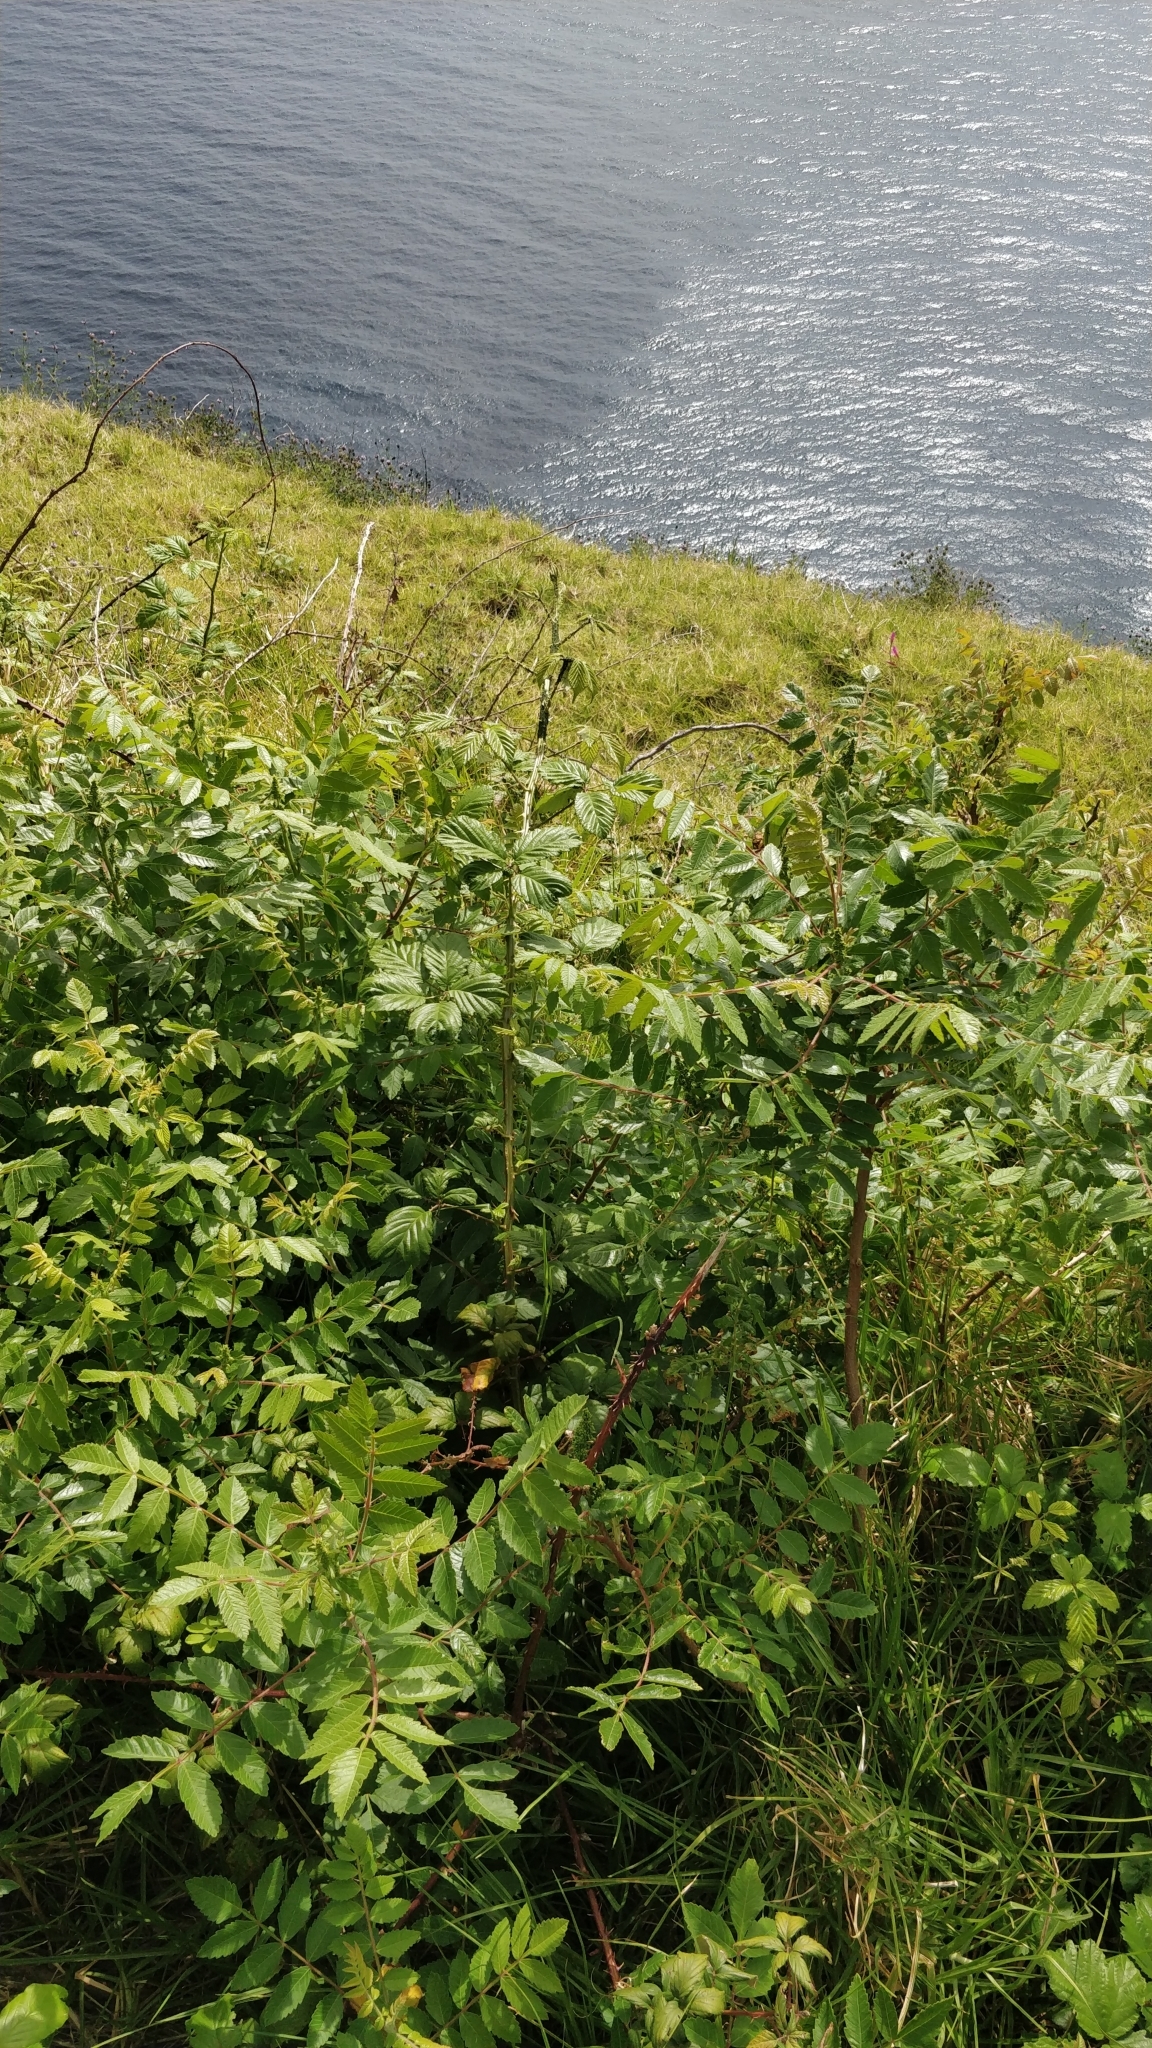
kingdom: Plantae
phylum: Tracheophyta
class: Magnoliopsida
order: Sapindales
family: Anacardiaceae
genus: Rhus
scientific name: Rhus coriaria
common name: Tanner's sumach
